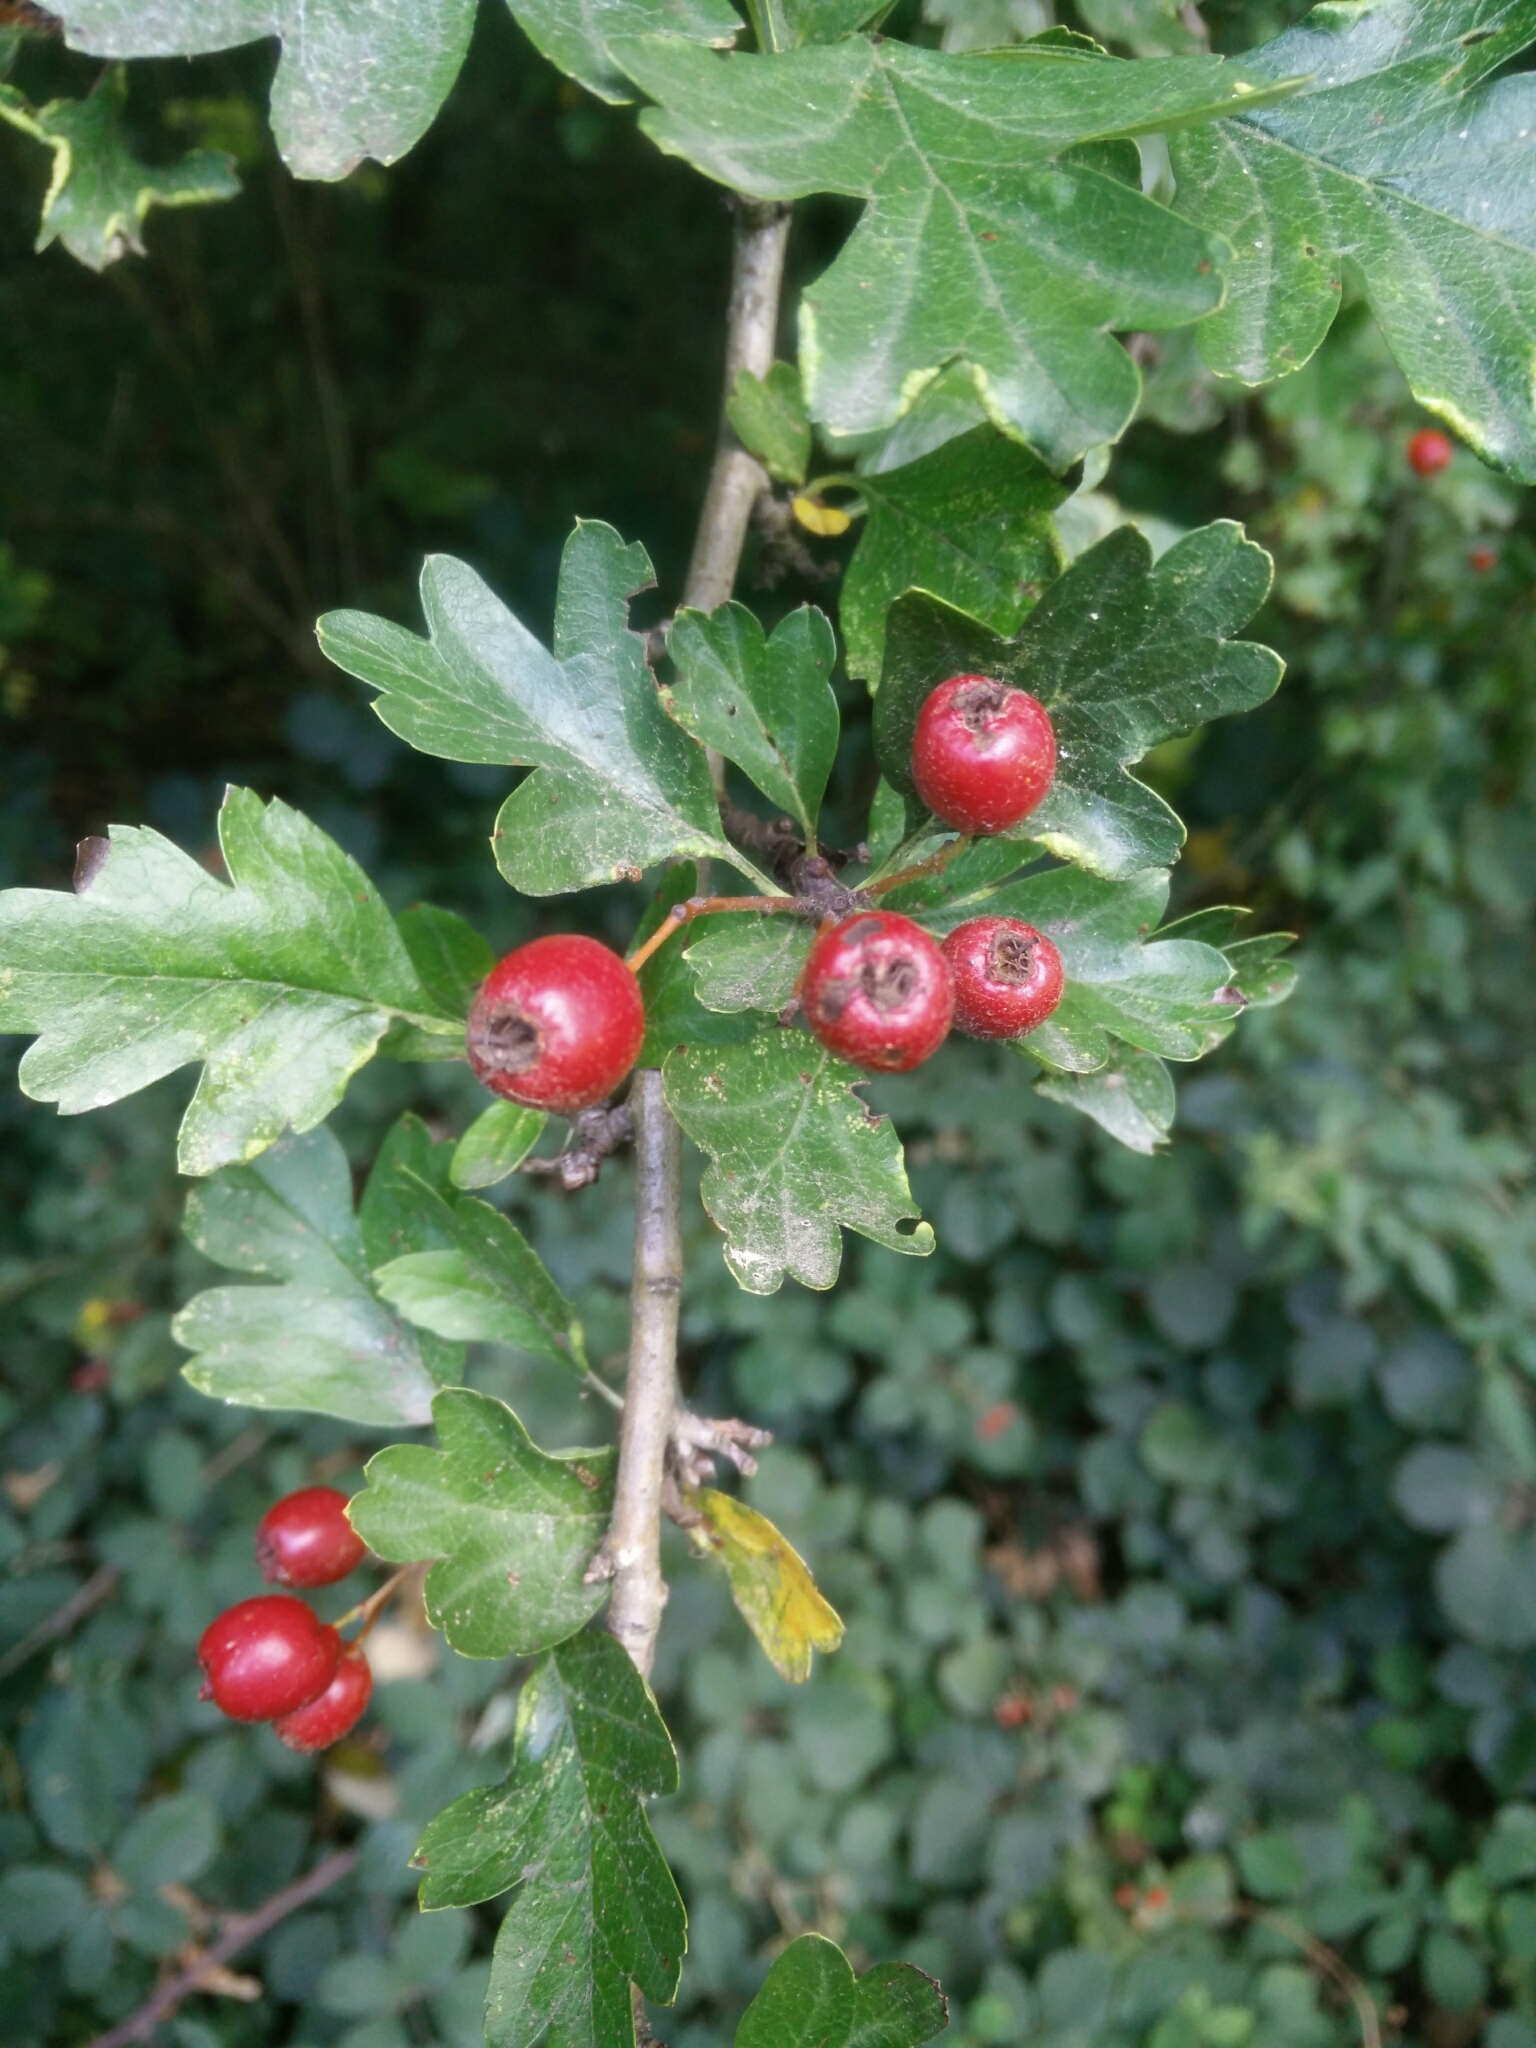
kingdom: Plantae
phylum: Tracheophyta
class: Magnoliopsida
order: Rosales
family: Rosaceae
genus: Crataegus
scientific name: Crataegus monogyna
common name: Hawthorn
